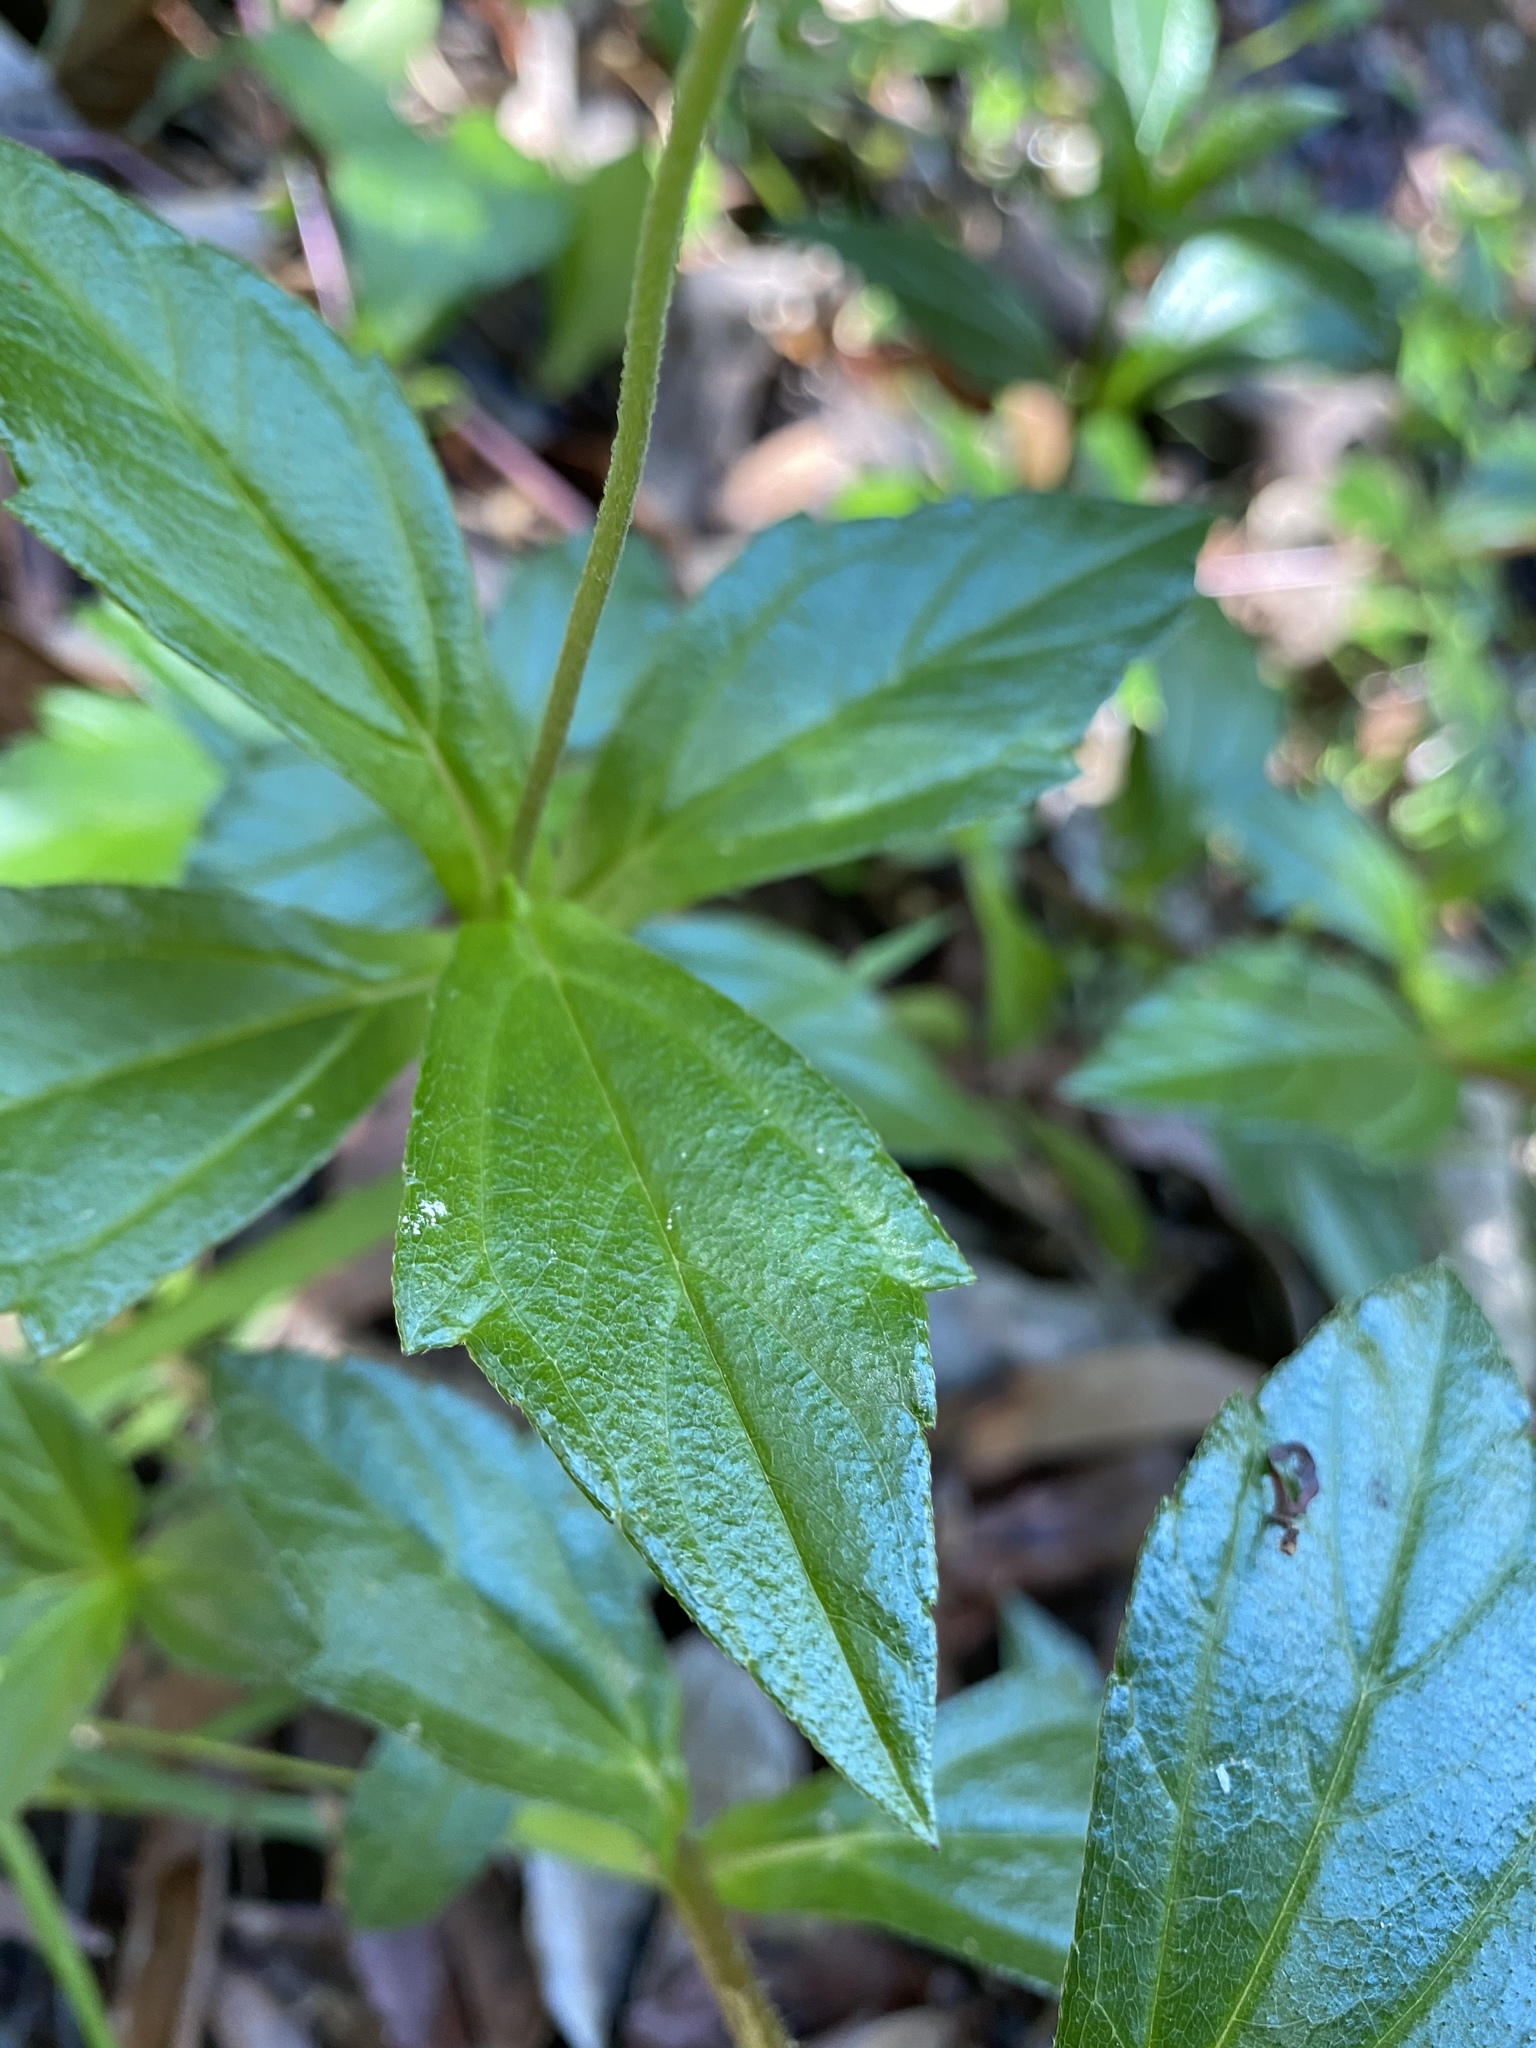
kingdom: Plantae
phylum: Tracheophyta
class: Magnoliopsida
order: Asterales
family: Asteraceae
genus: Sphagneticola
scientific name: Sphagneticola trilobata
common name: Bay biscayne creeping-oxeye
